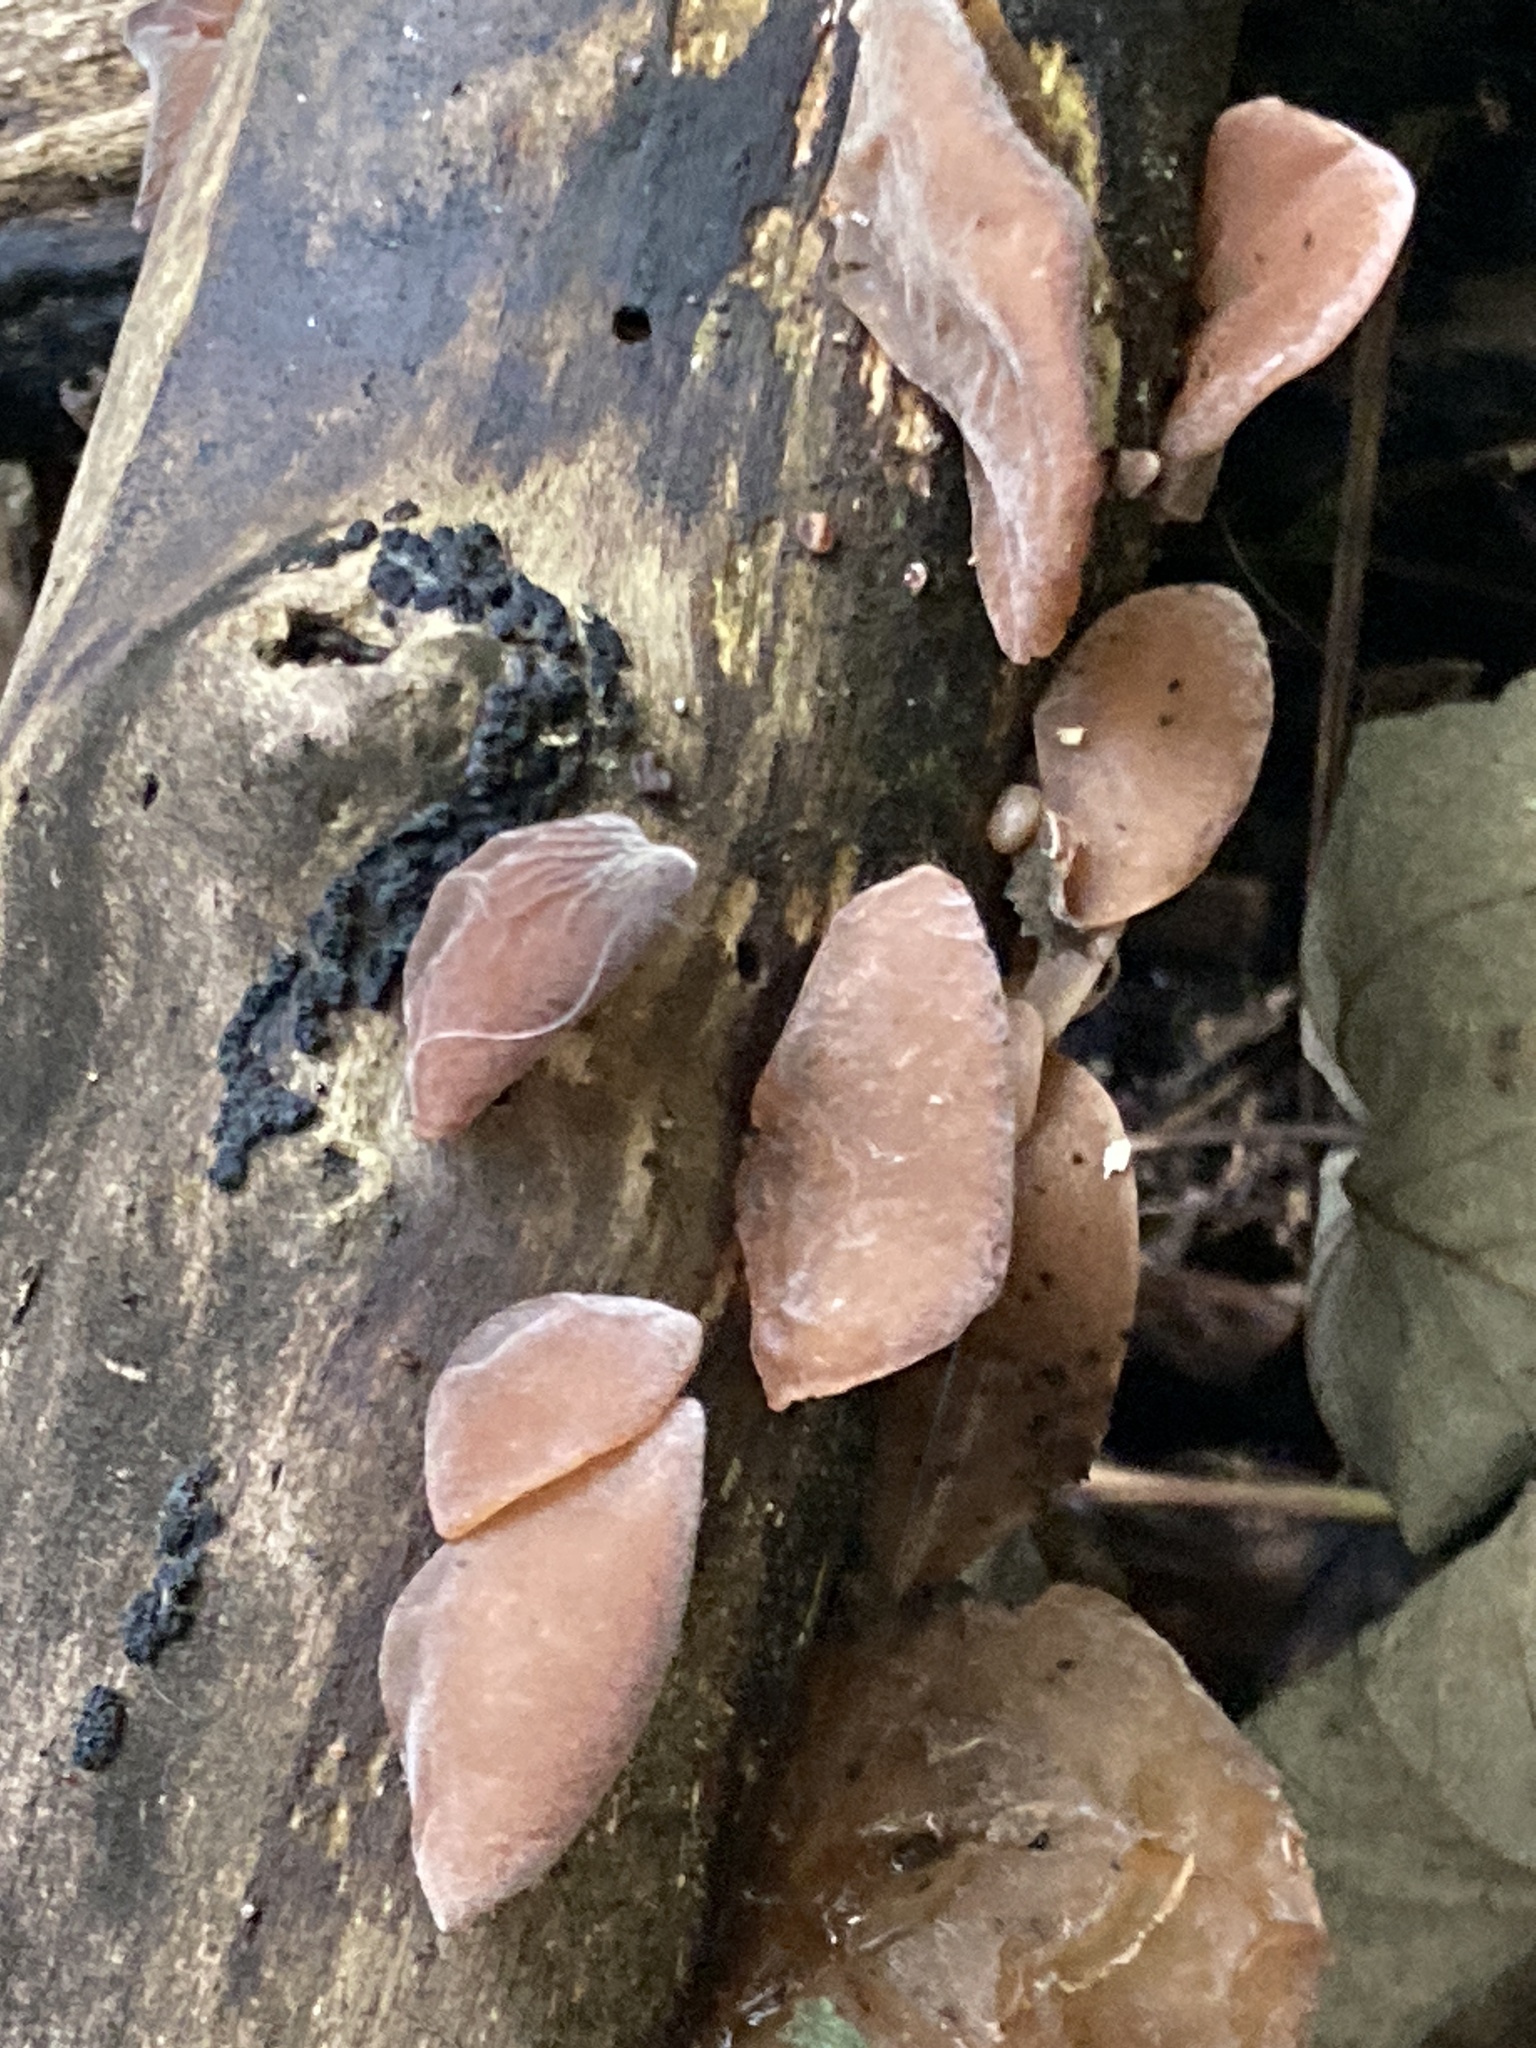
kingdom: Fungi
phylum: Basidiomycota
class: Agaricomycetes
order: Auriculariales
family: Auriculariaceae
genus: Auricularia
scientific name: Auricularia auricula-judae
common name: Jelly ear
